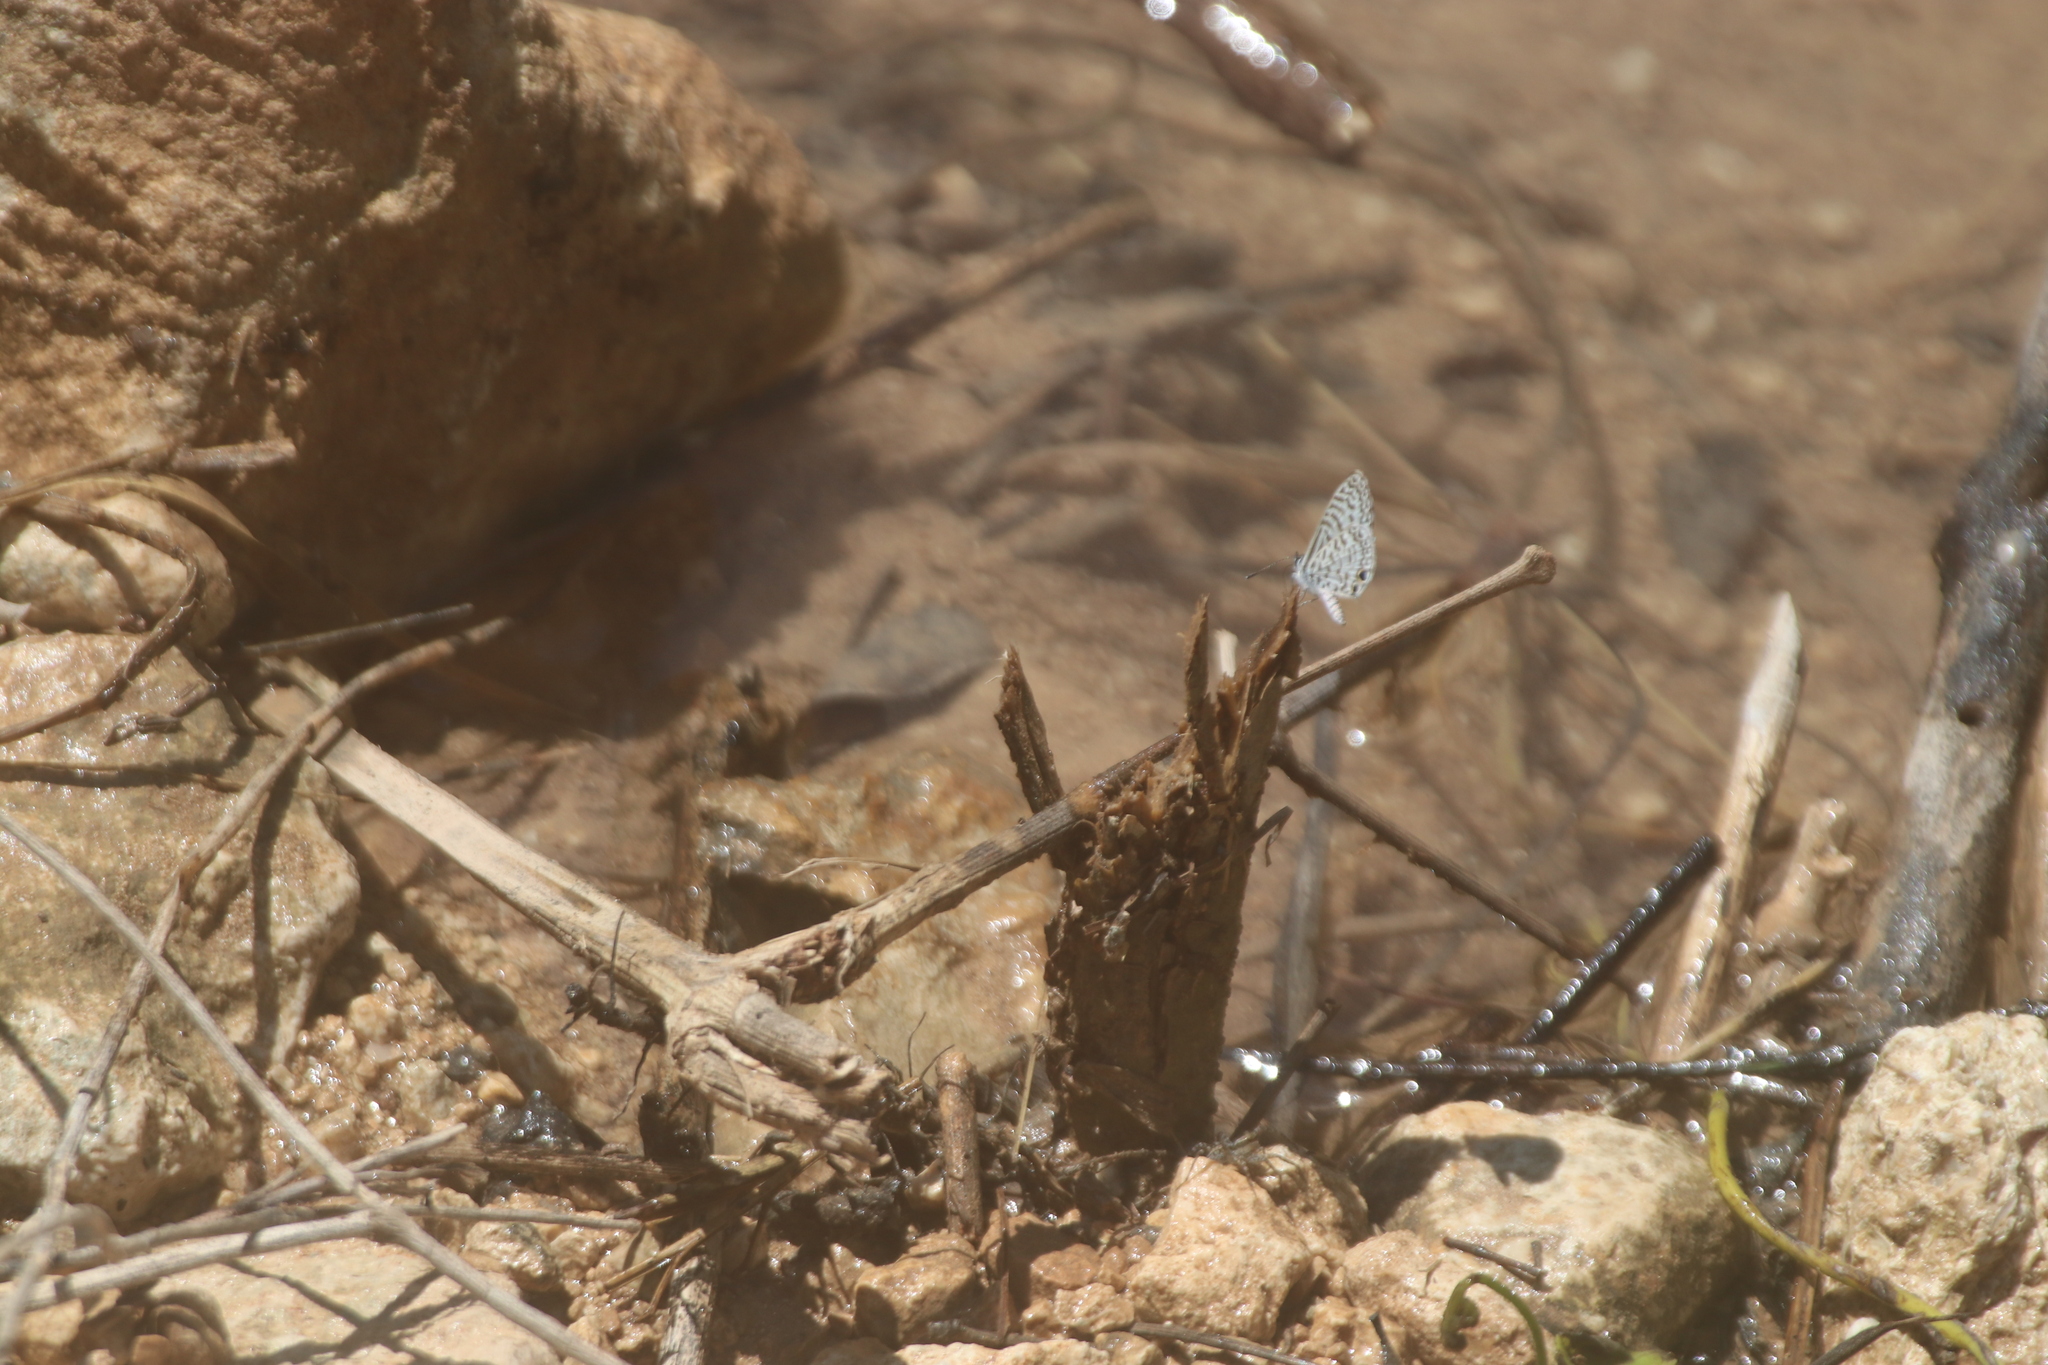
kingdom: Animalia
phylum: Arthropoda
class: Insecta
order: Lepidoptera
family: Lycaenidae
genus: Leptotes
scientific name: Leptotes theonus
